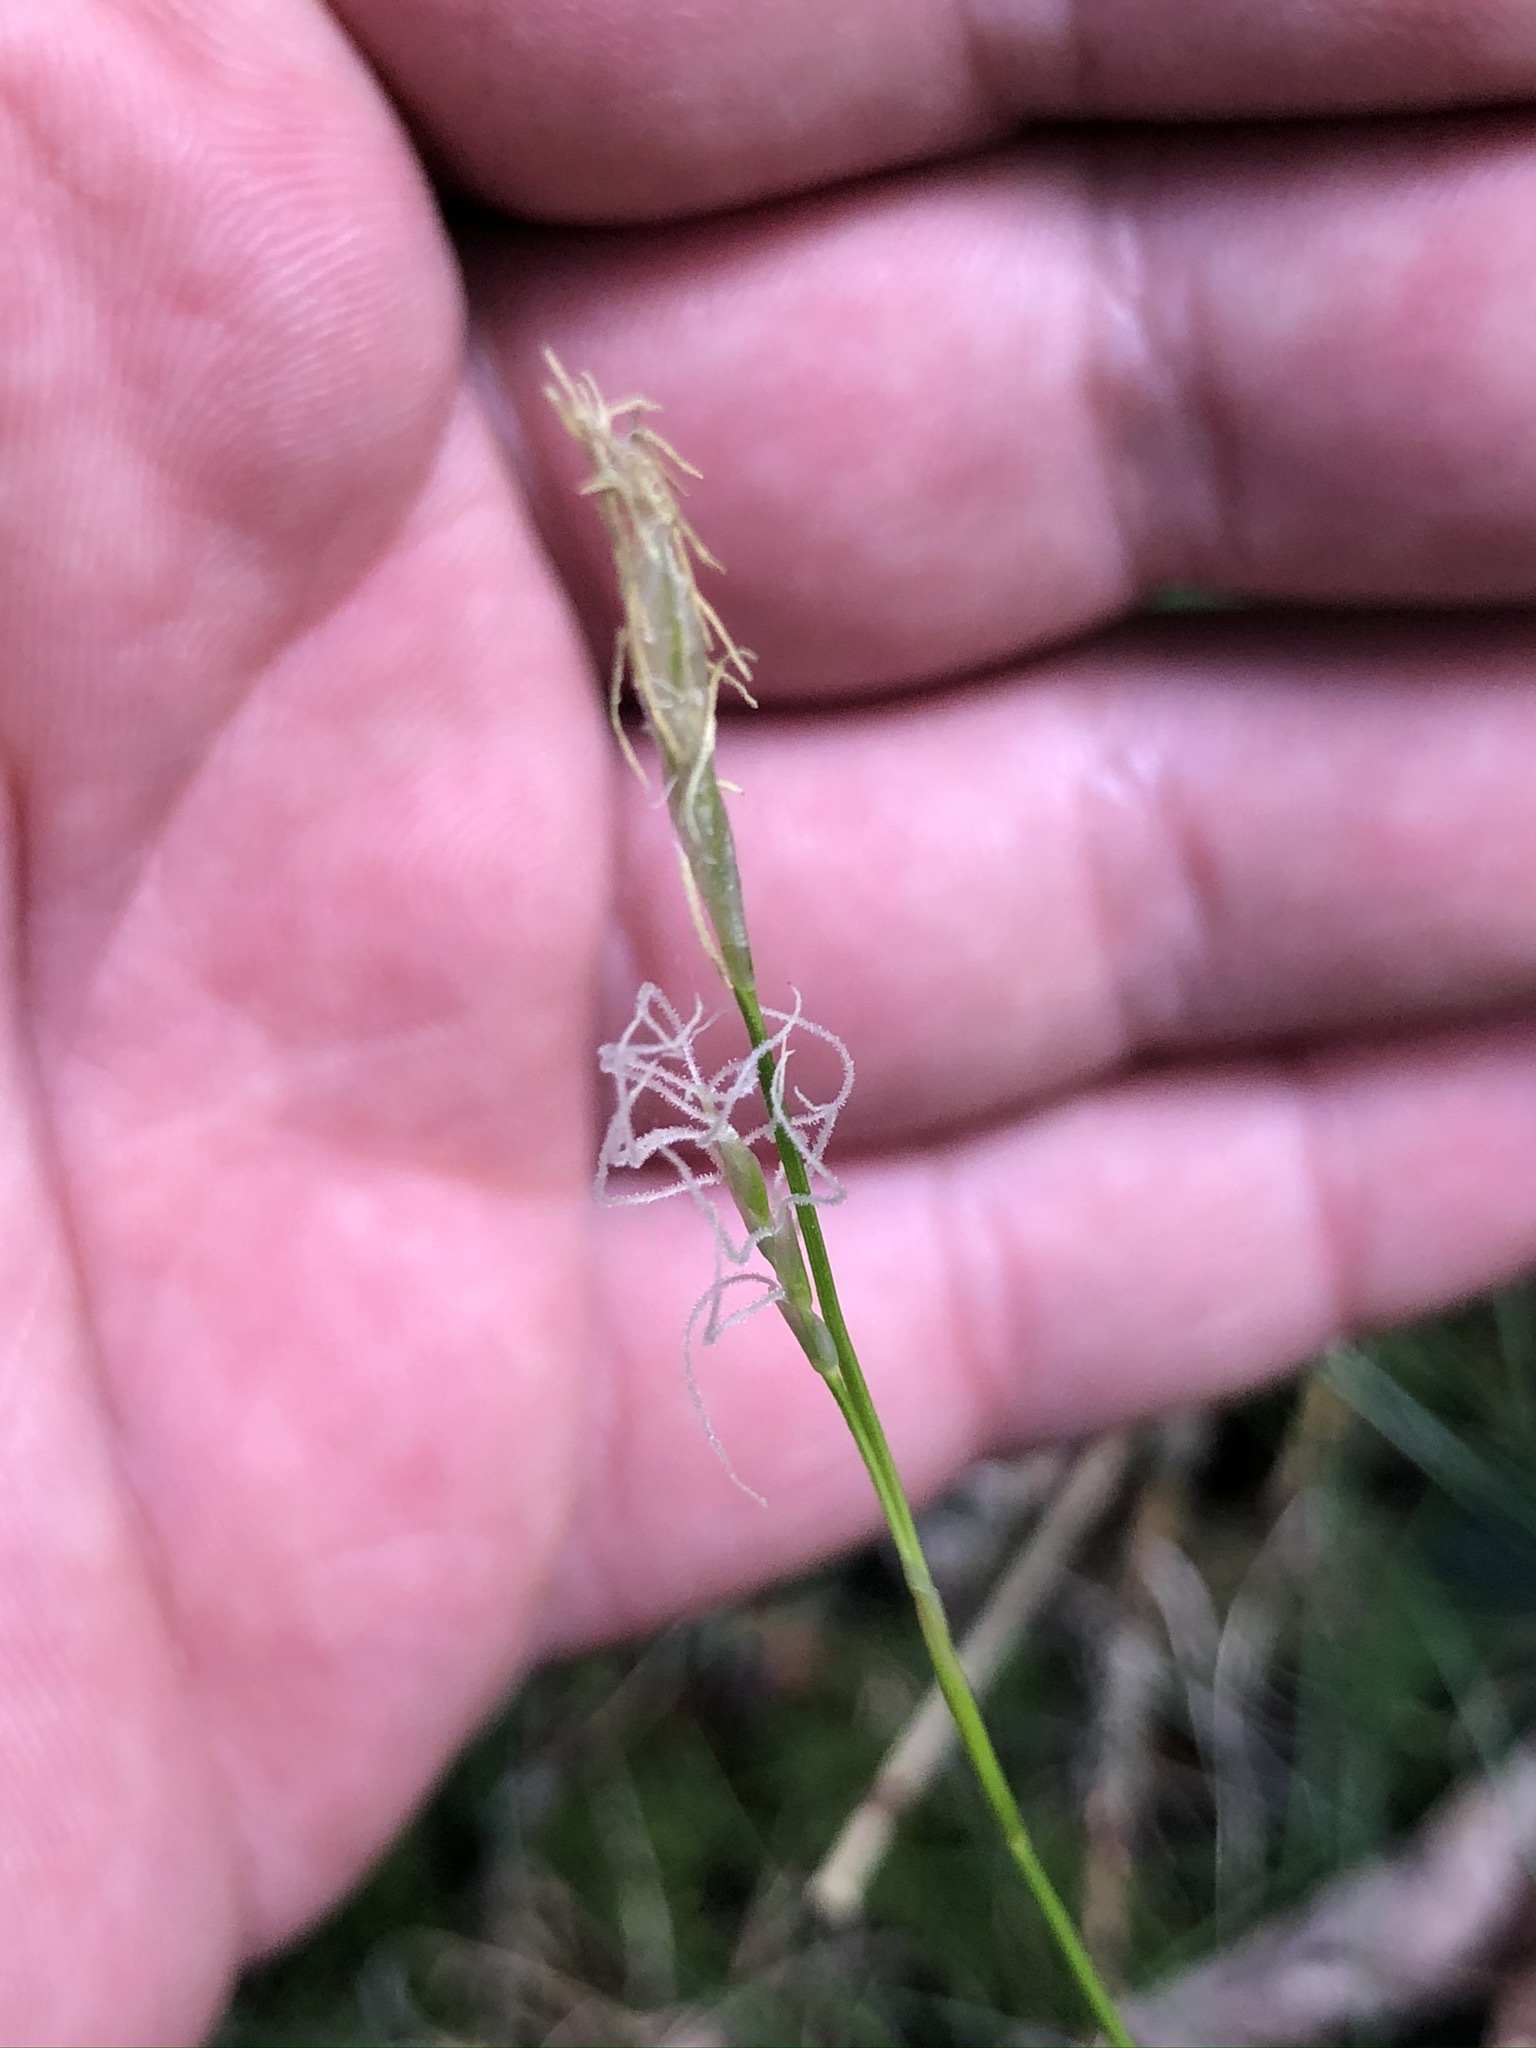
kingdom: Plantae
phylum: Tracheophyta
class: Liliopsida
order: Poales
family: Cyperaceae
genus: Carex
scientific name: Carex alba
